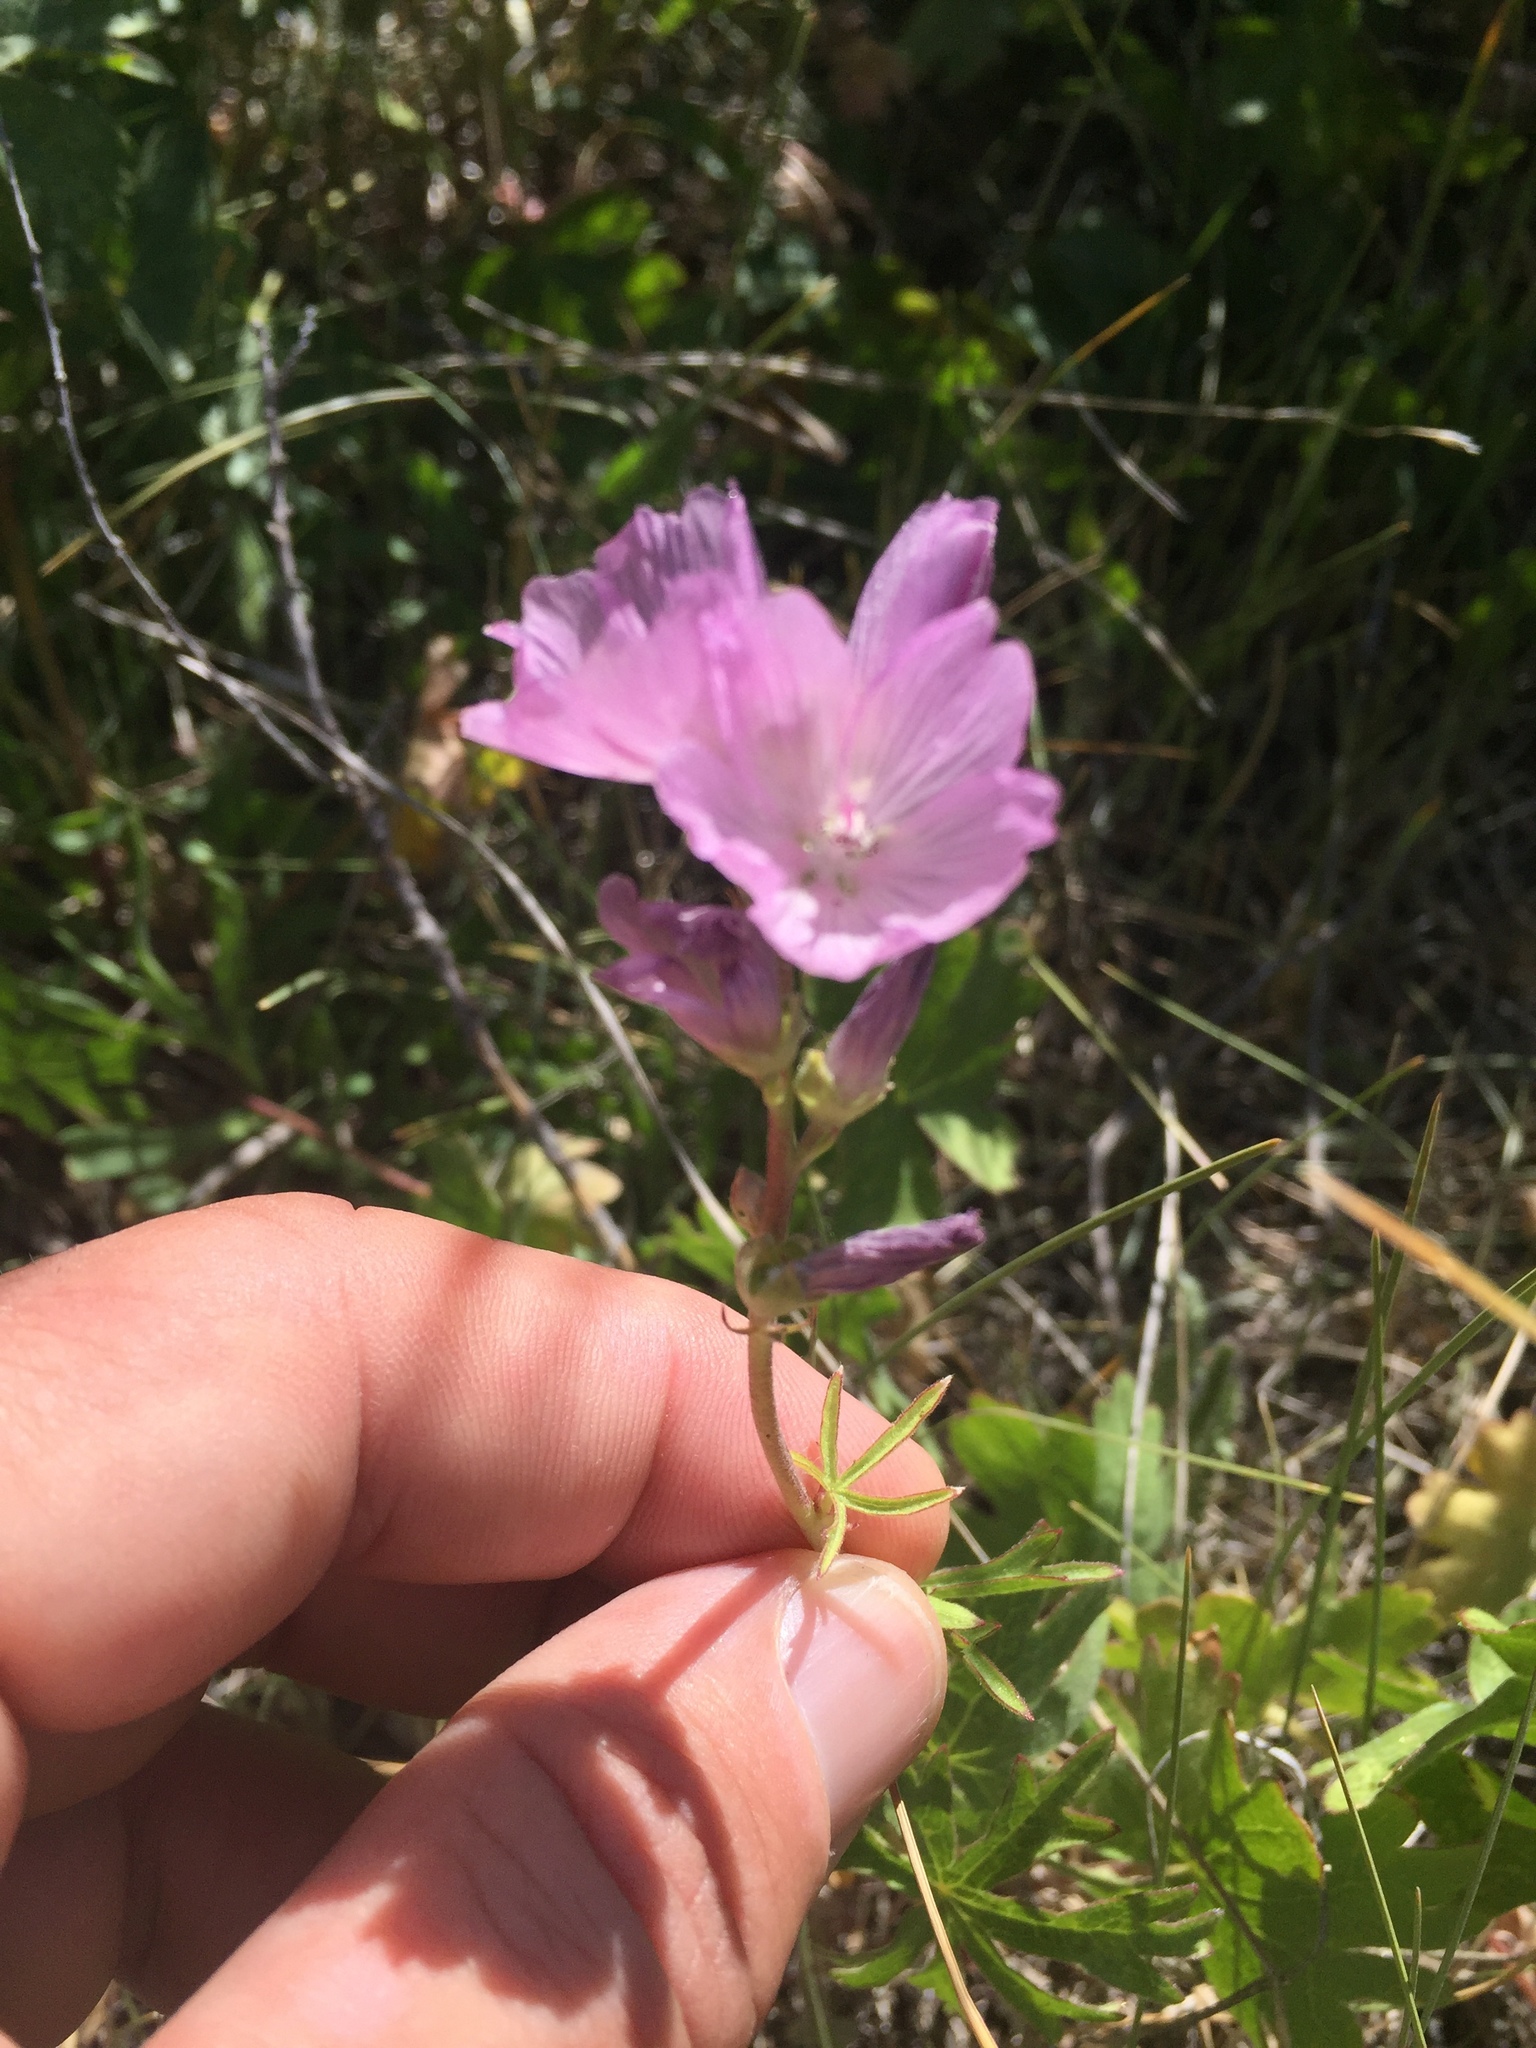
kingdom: Plantae
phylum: Tracheophyta
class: Magnoliopsida
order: Malvales
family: Malvaceae
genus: Sidalcea
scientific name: Sidalcea oregana
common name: Oregon checker-mallow
